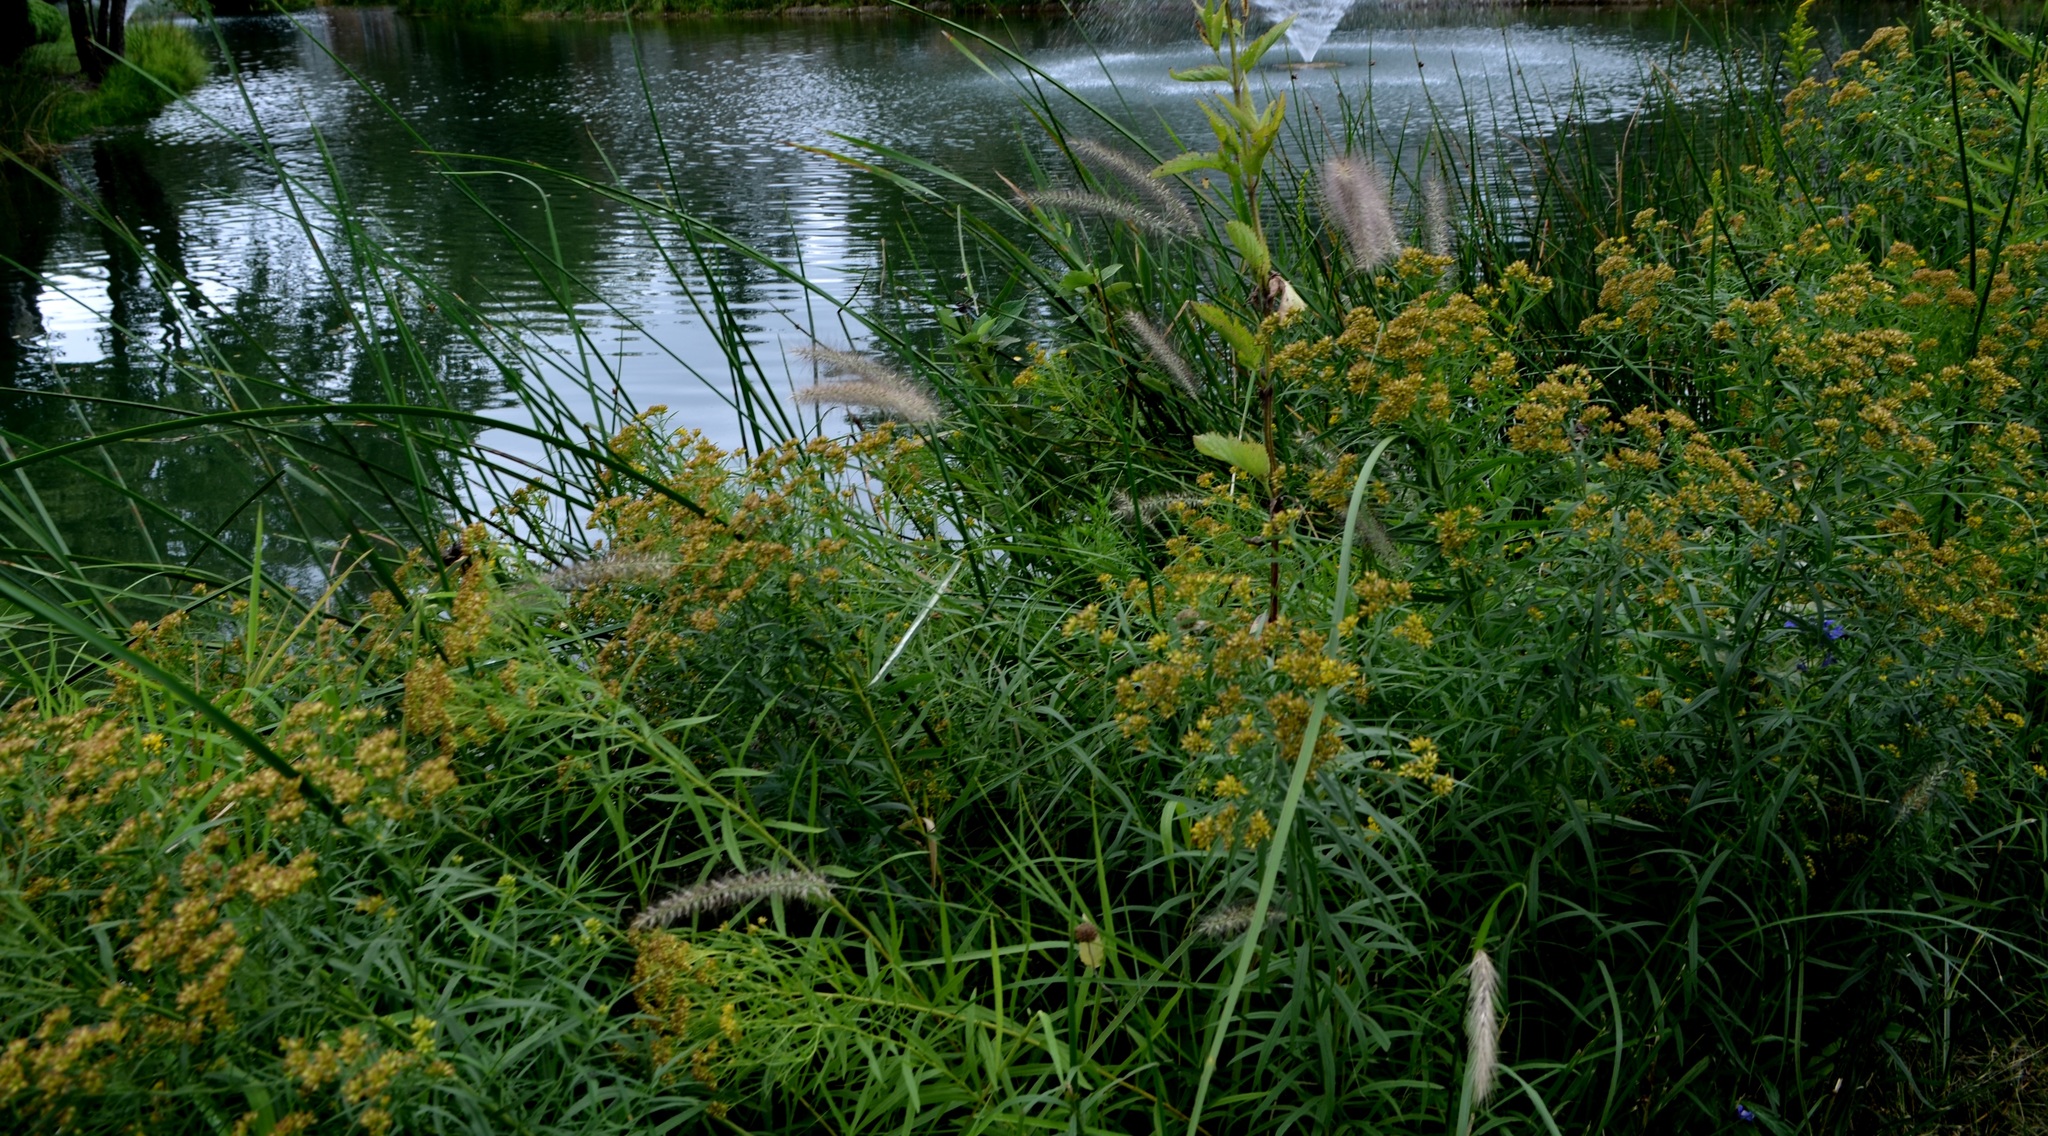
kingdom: Plantae
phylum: Tracheophyta
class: Liliopsida
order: Poales
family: Poaceae
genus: Cenchrus
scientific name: Cenchrus alopecuroides
